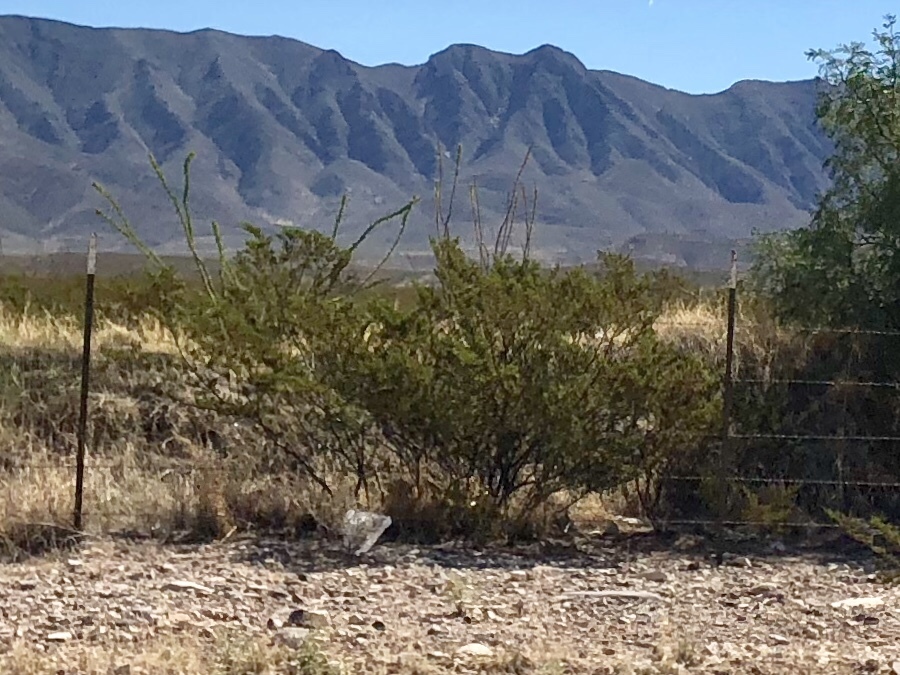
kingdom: Plantae
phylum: Tracheophyta
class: Magnoliopsida
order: Zygophyllales
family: Zygophyllaceae
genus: Larrea
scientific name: Larrea tridentata
